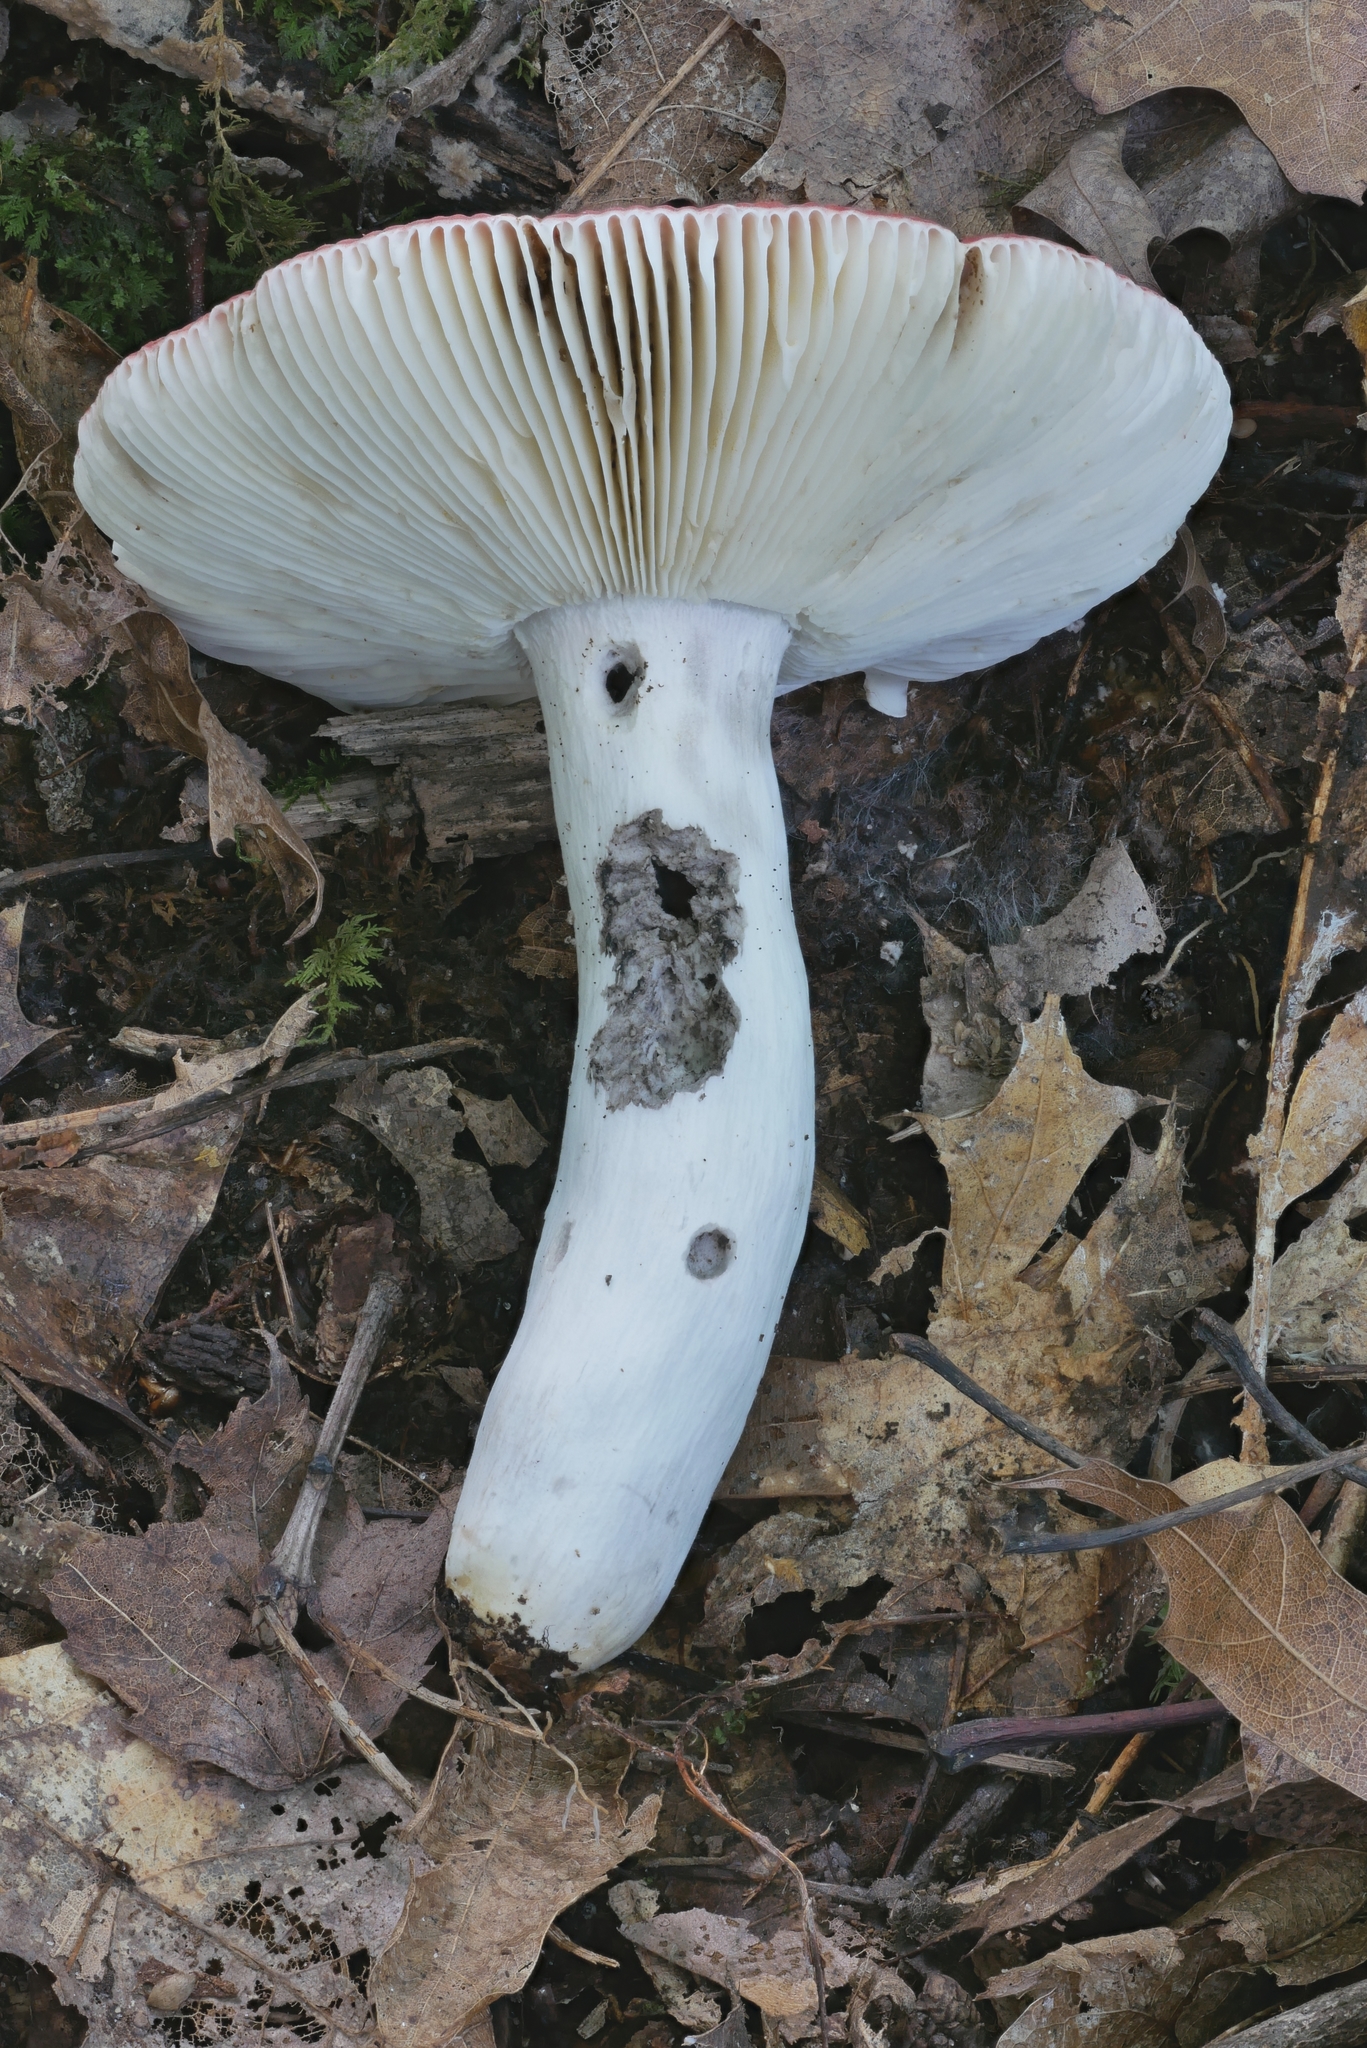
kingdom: Fungi
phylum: Basidiomycota
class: Agaricomycetes
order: Russulales
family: Russulaceae
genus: Russula
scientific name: Russula rubescens
